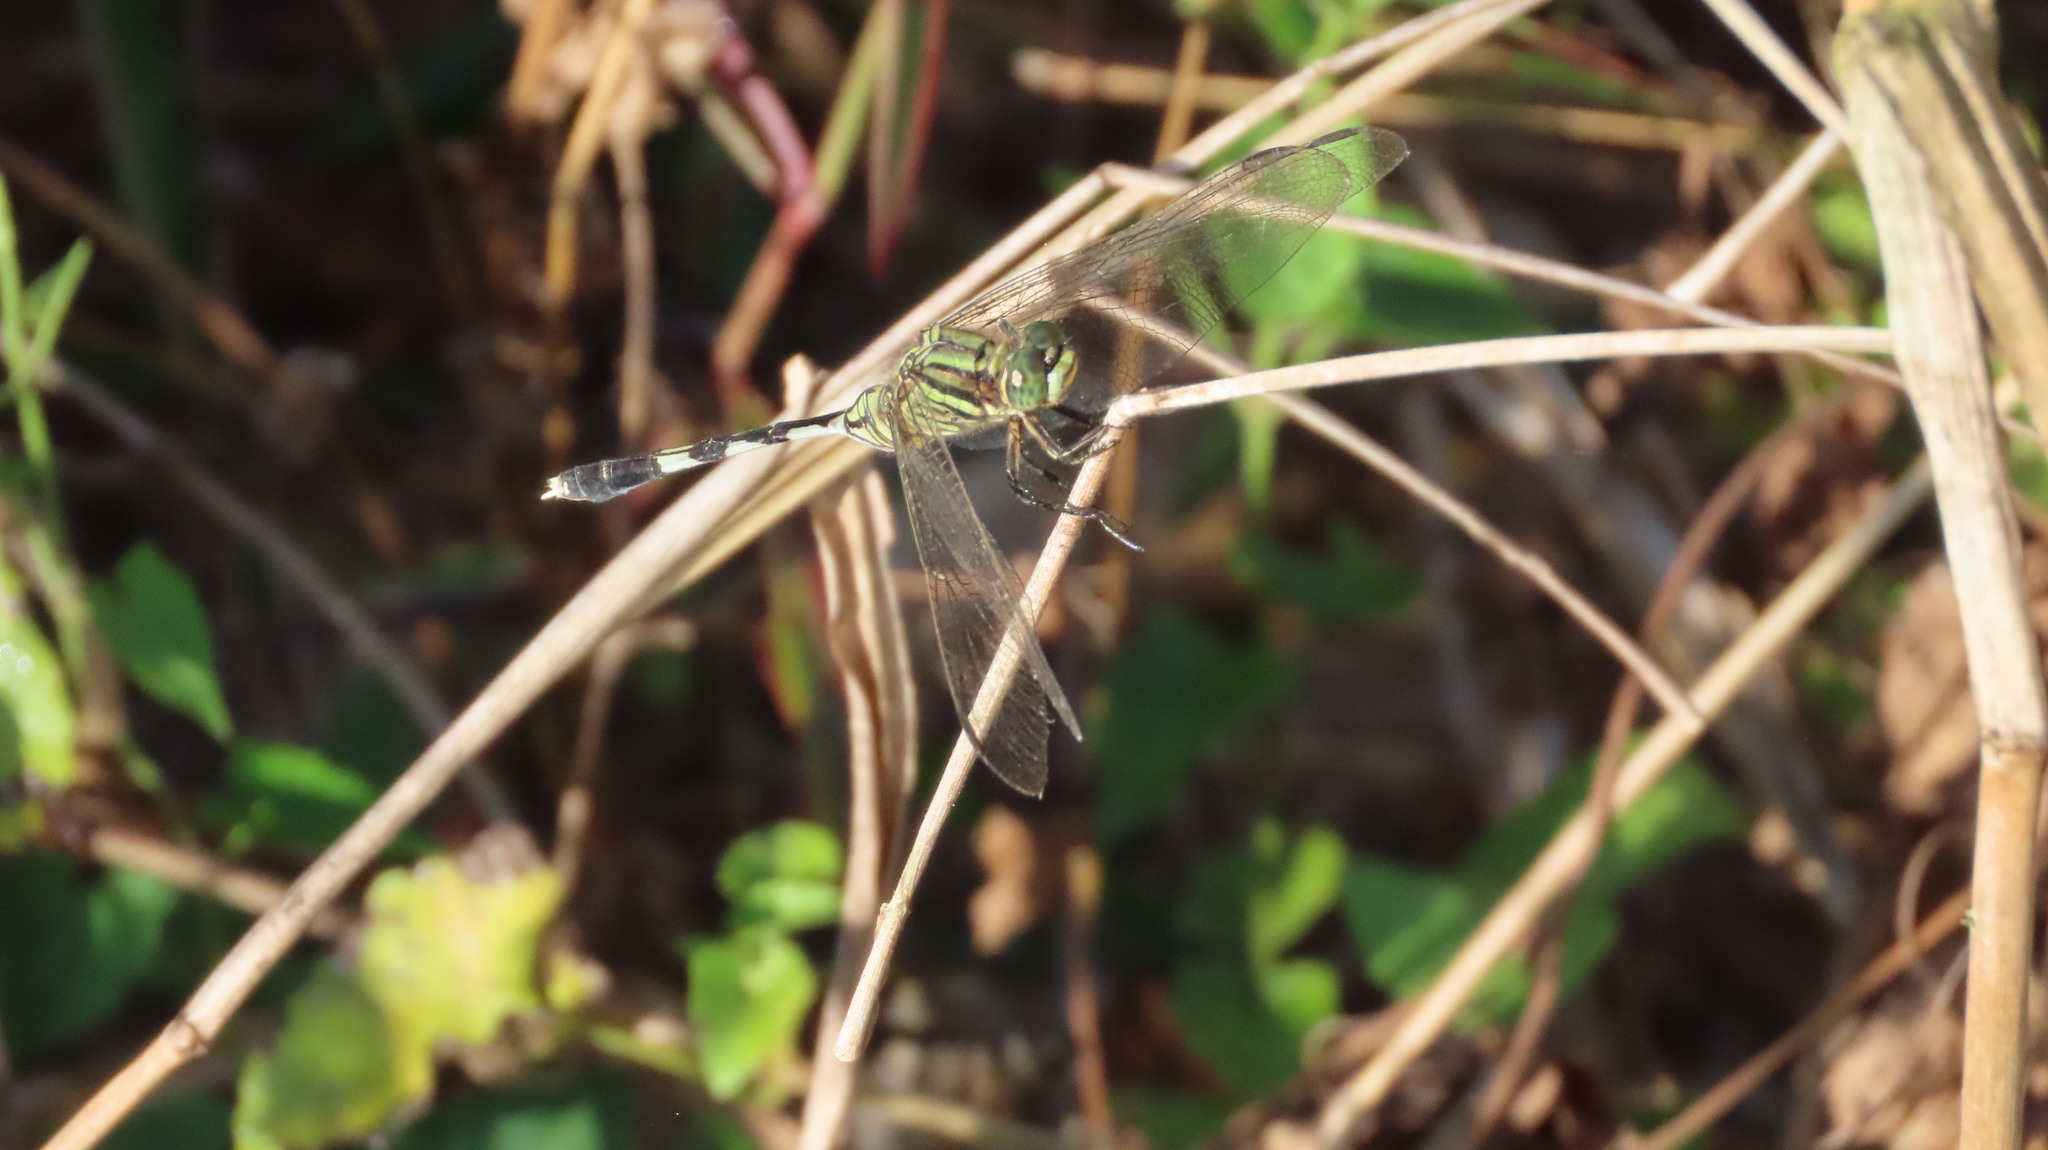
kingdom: Animalia
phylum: Arthropoda
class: Insecta
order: Odonata
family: Libellulidae
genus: Orthetrum
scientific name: Orthetrum sabina
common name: Slender skimmer
